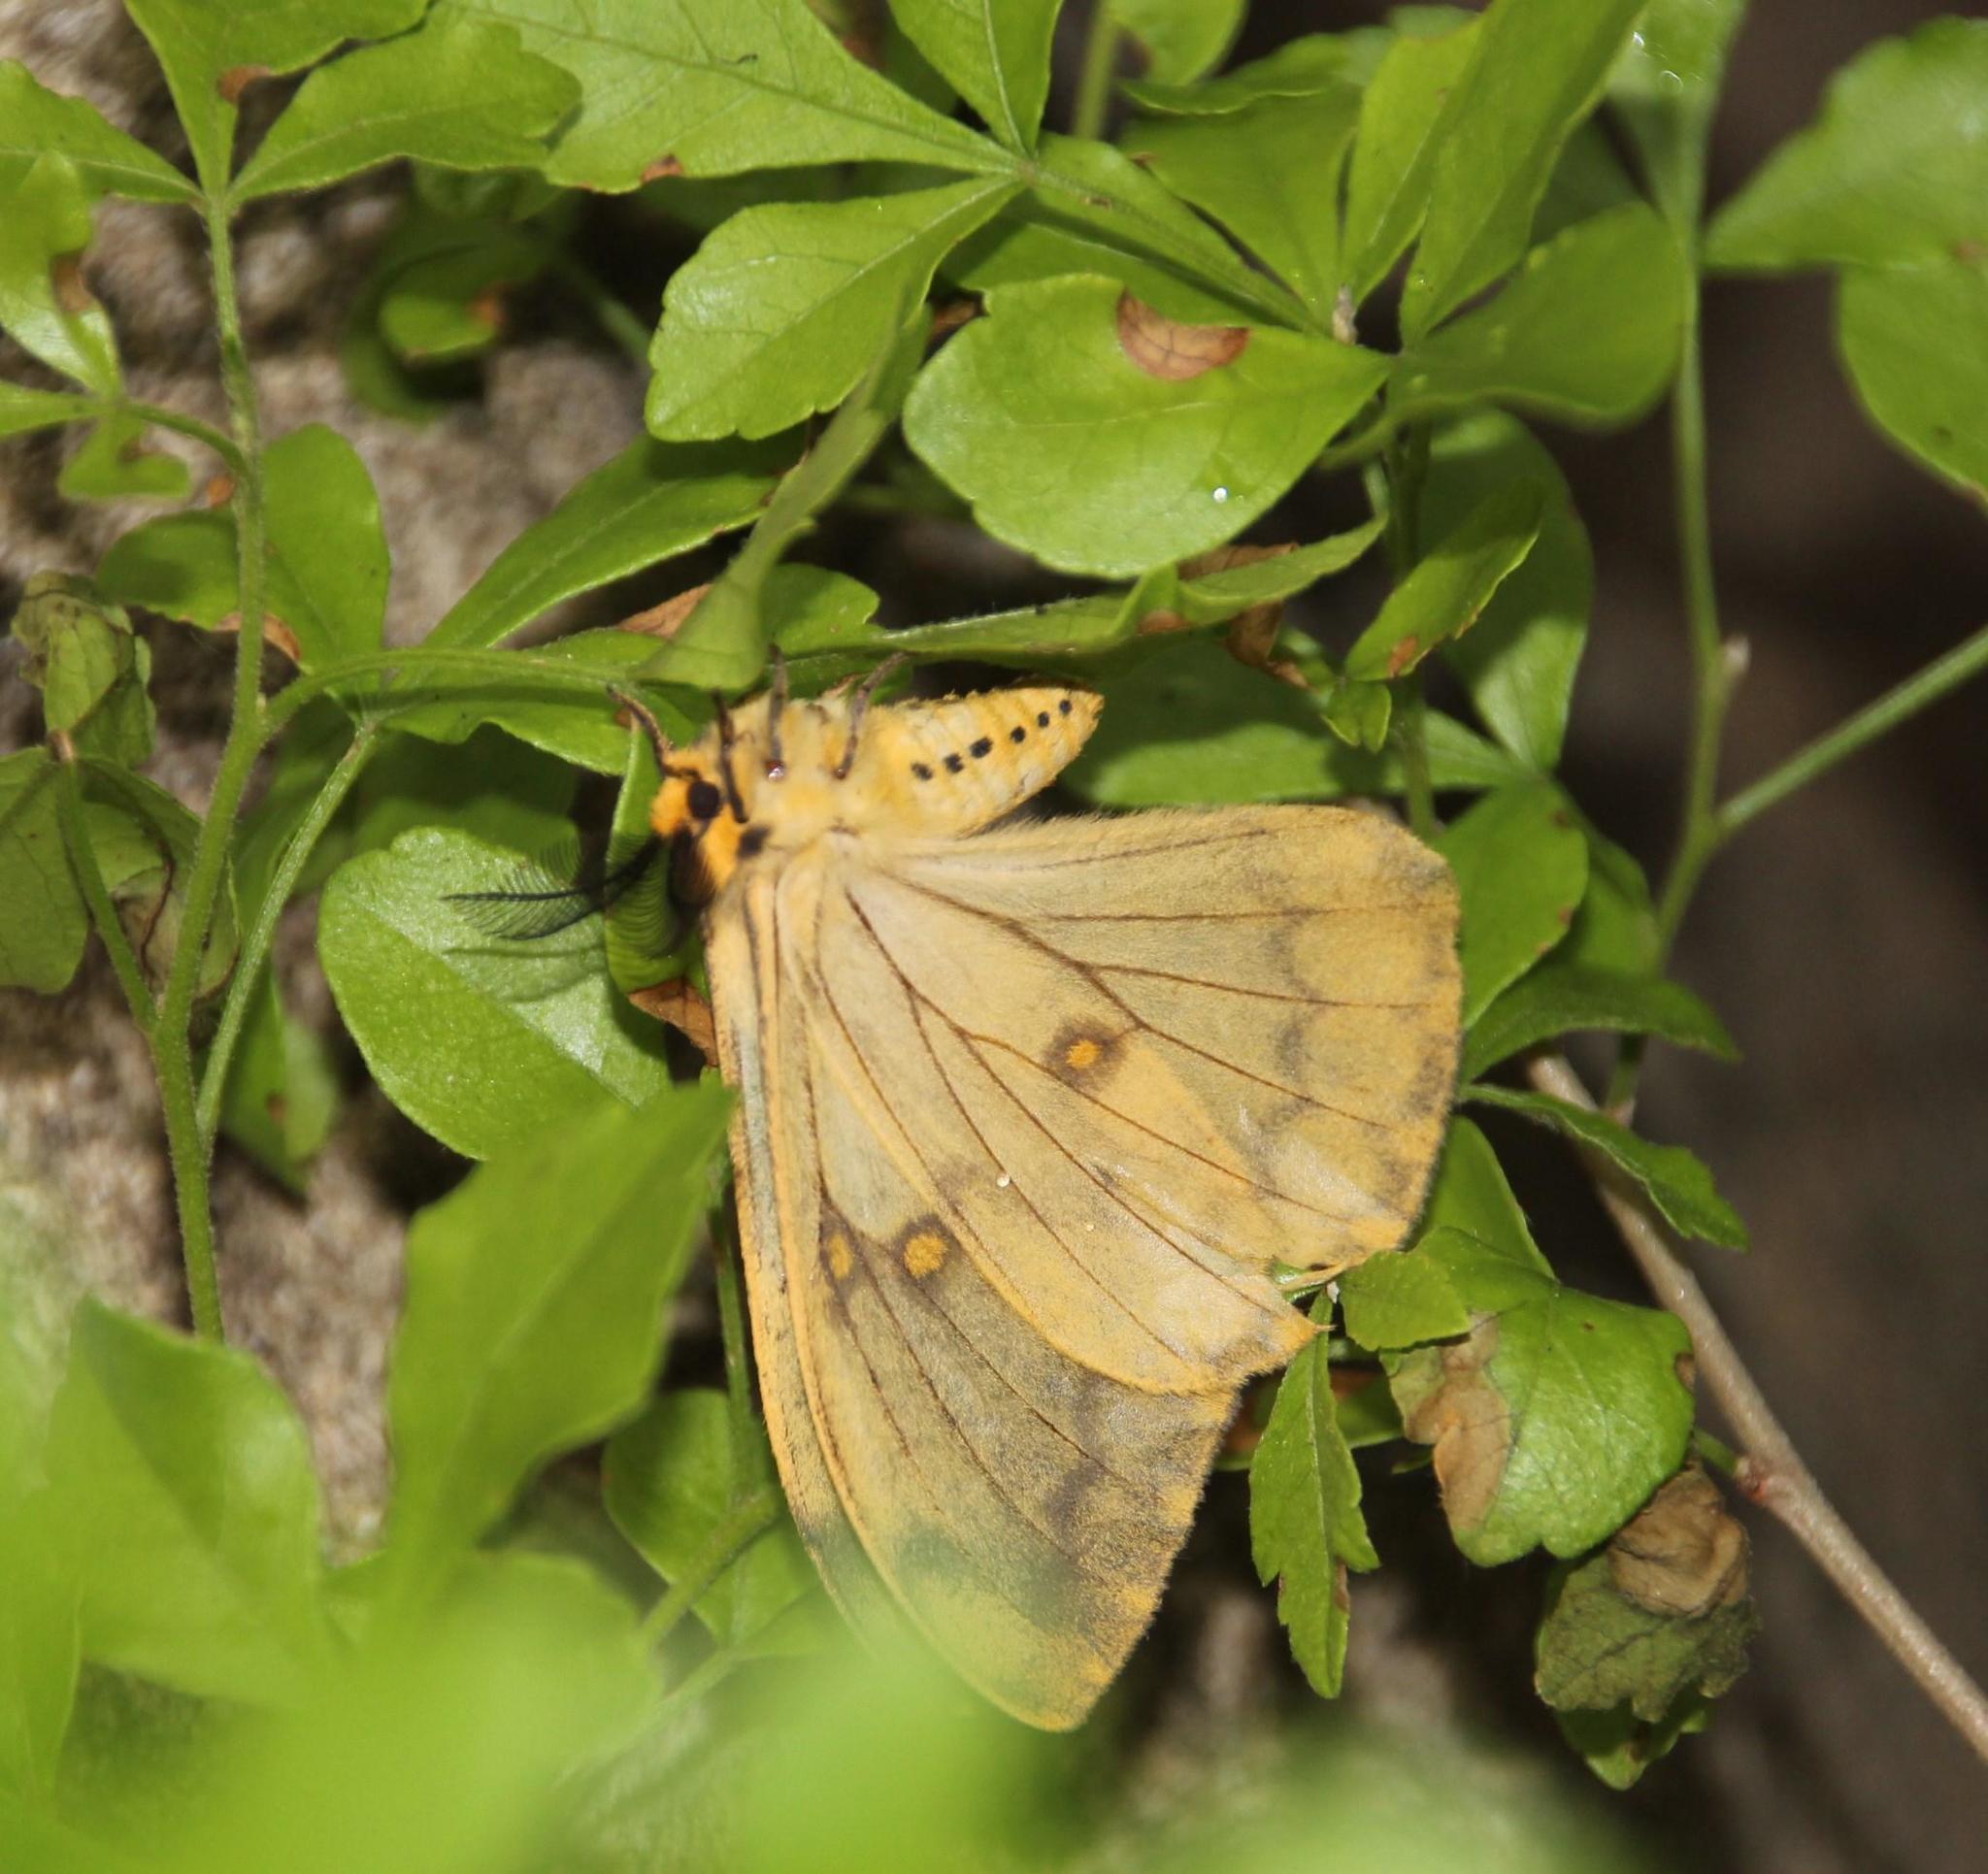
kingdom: Animalia
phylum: Arthropoda
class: Insecta
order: Lepidoptera
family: Saturniidae
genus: Pseudaphelia
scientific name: Pseudaphelia apollinaris
